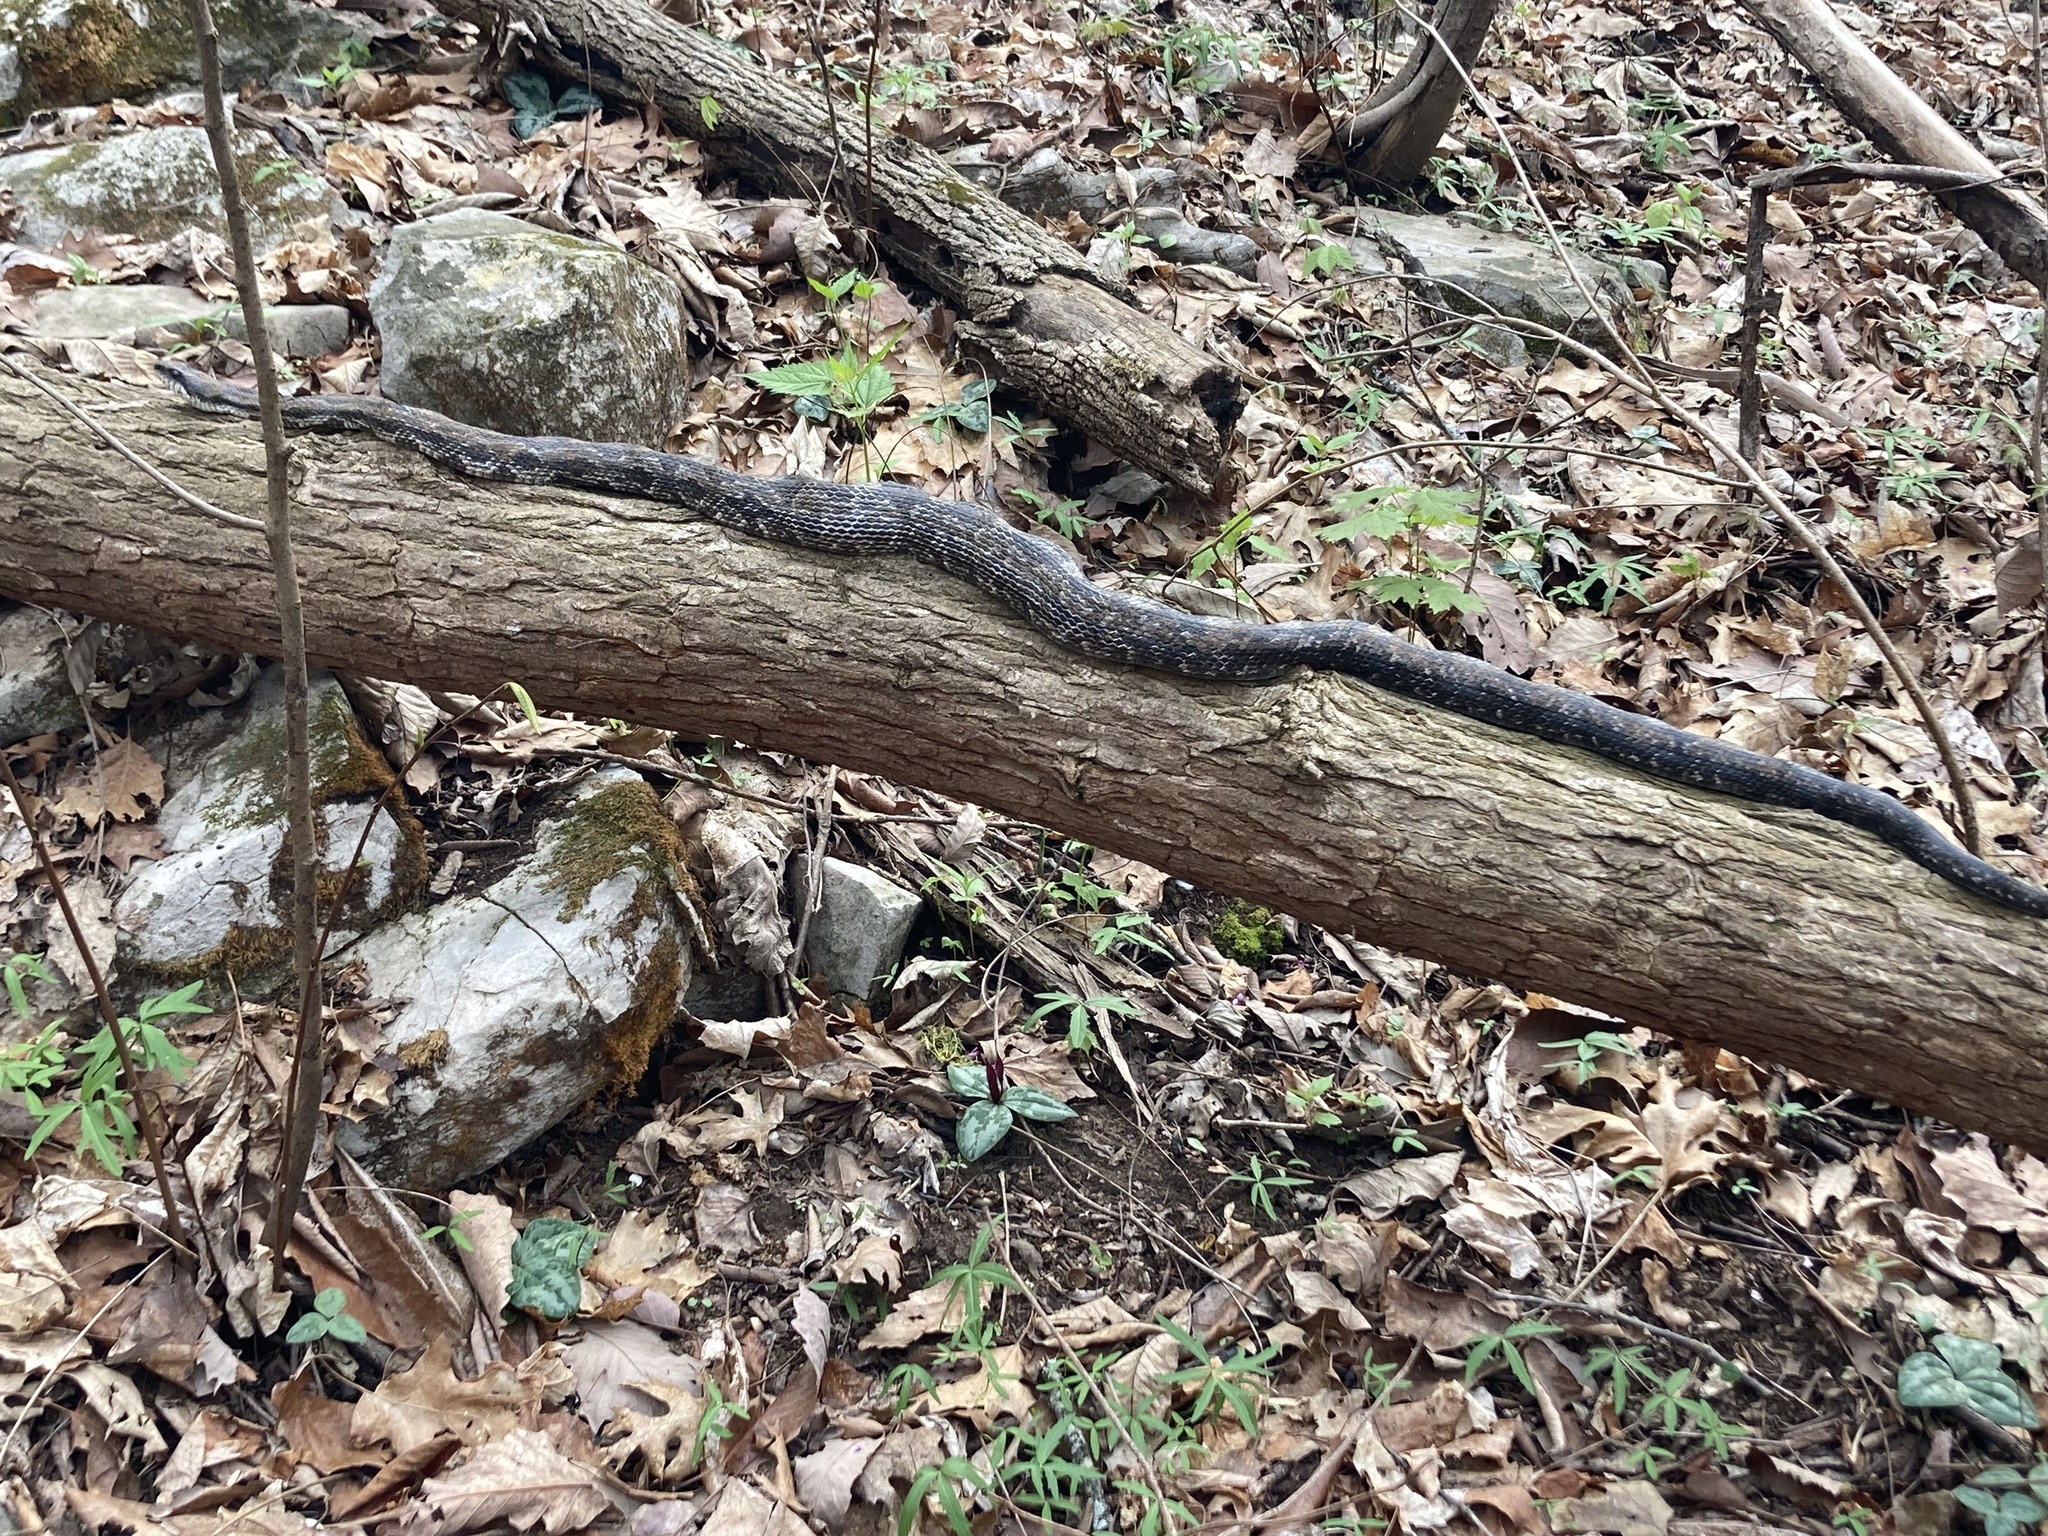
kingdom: Animalia
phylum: Chordata
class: Squamata
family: Colubridae
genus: Pantherophis
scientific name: Pantherophis spiloides
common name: Gray rat snake
